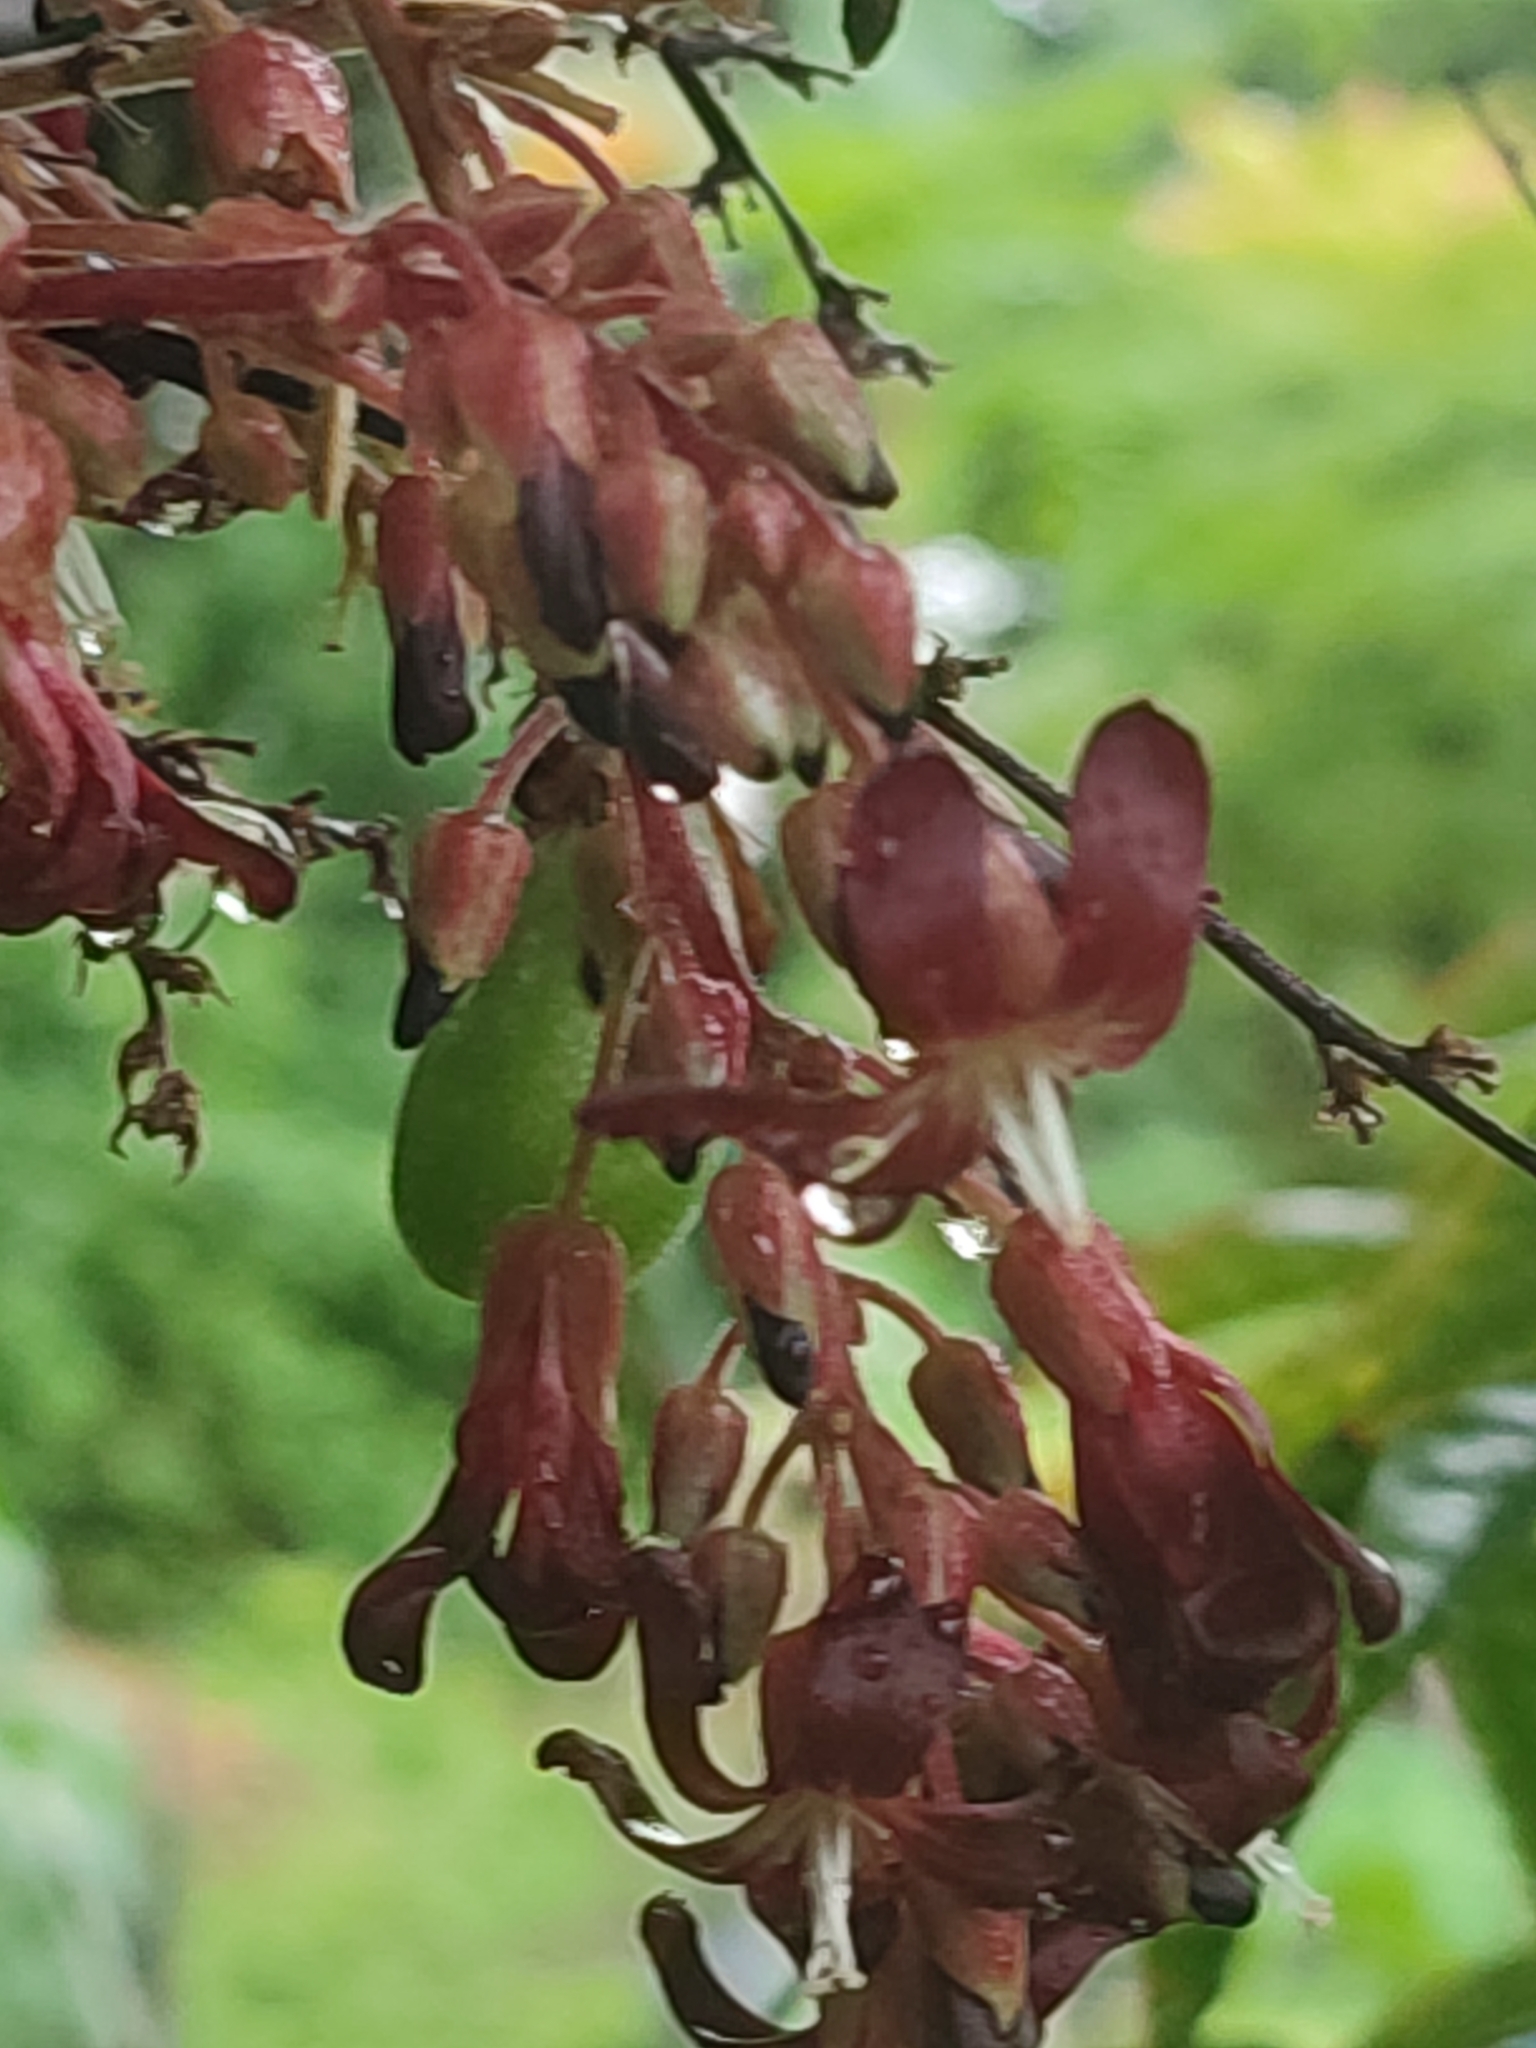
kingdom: Plantae
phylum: Tracheophyta
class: Magnoliopsida
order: Oxalidales
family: Oxalidaceae
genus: Averrhoa
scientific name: Averrhoa bilimbi
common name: Bilimbi
